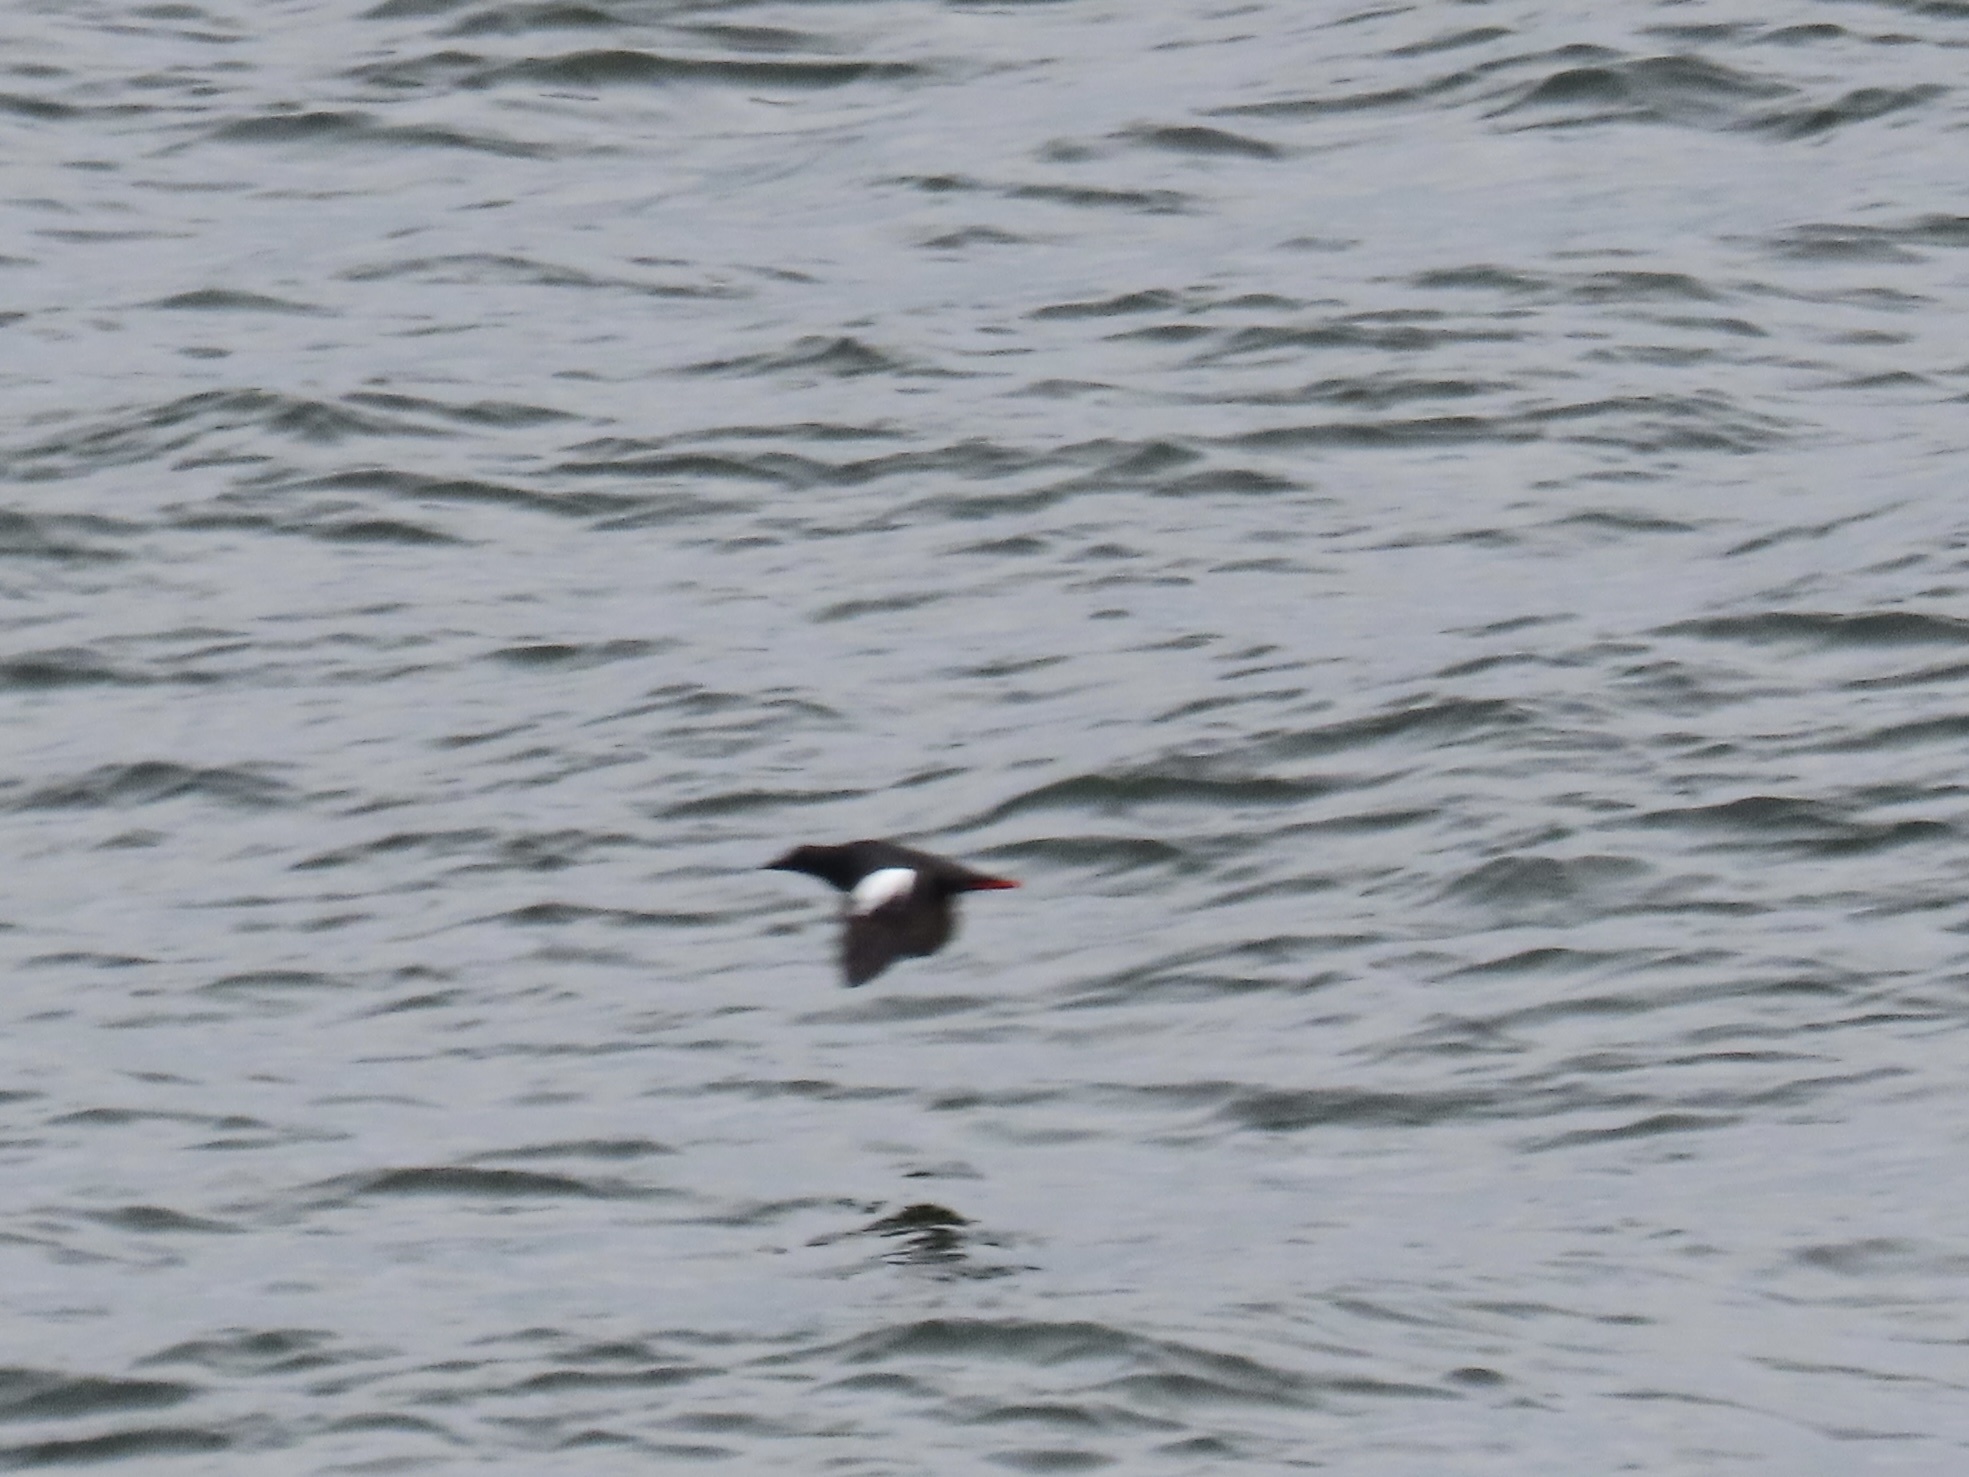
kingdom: Animalia
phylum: Chordata
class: Aves
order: Charadriiformes
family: Alcidae
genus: Cepphus
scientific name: Cepphus columba
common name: Pigeon guillemot
